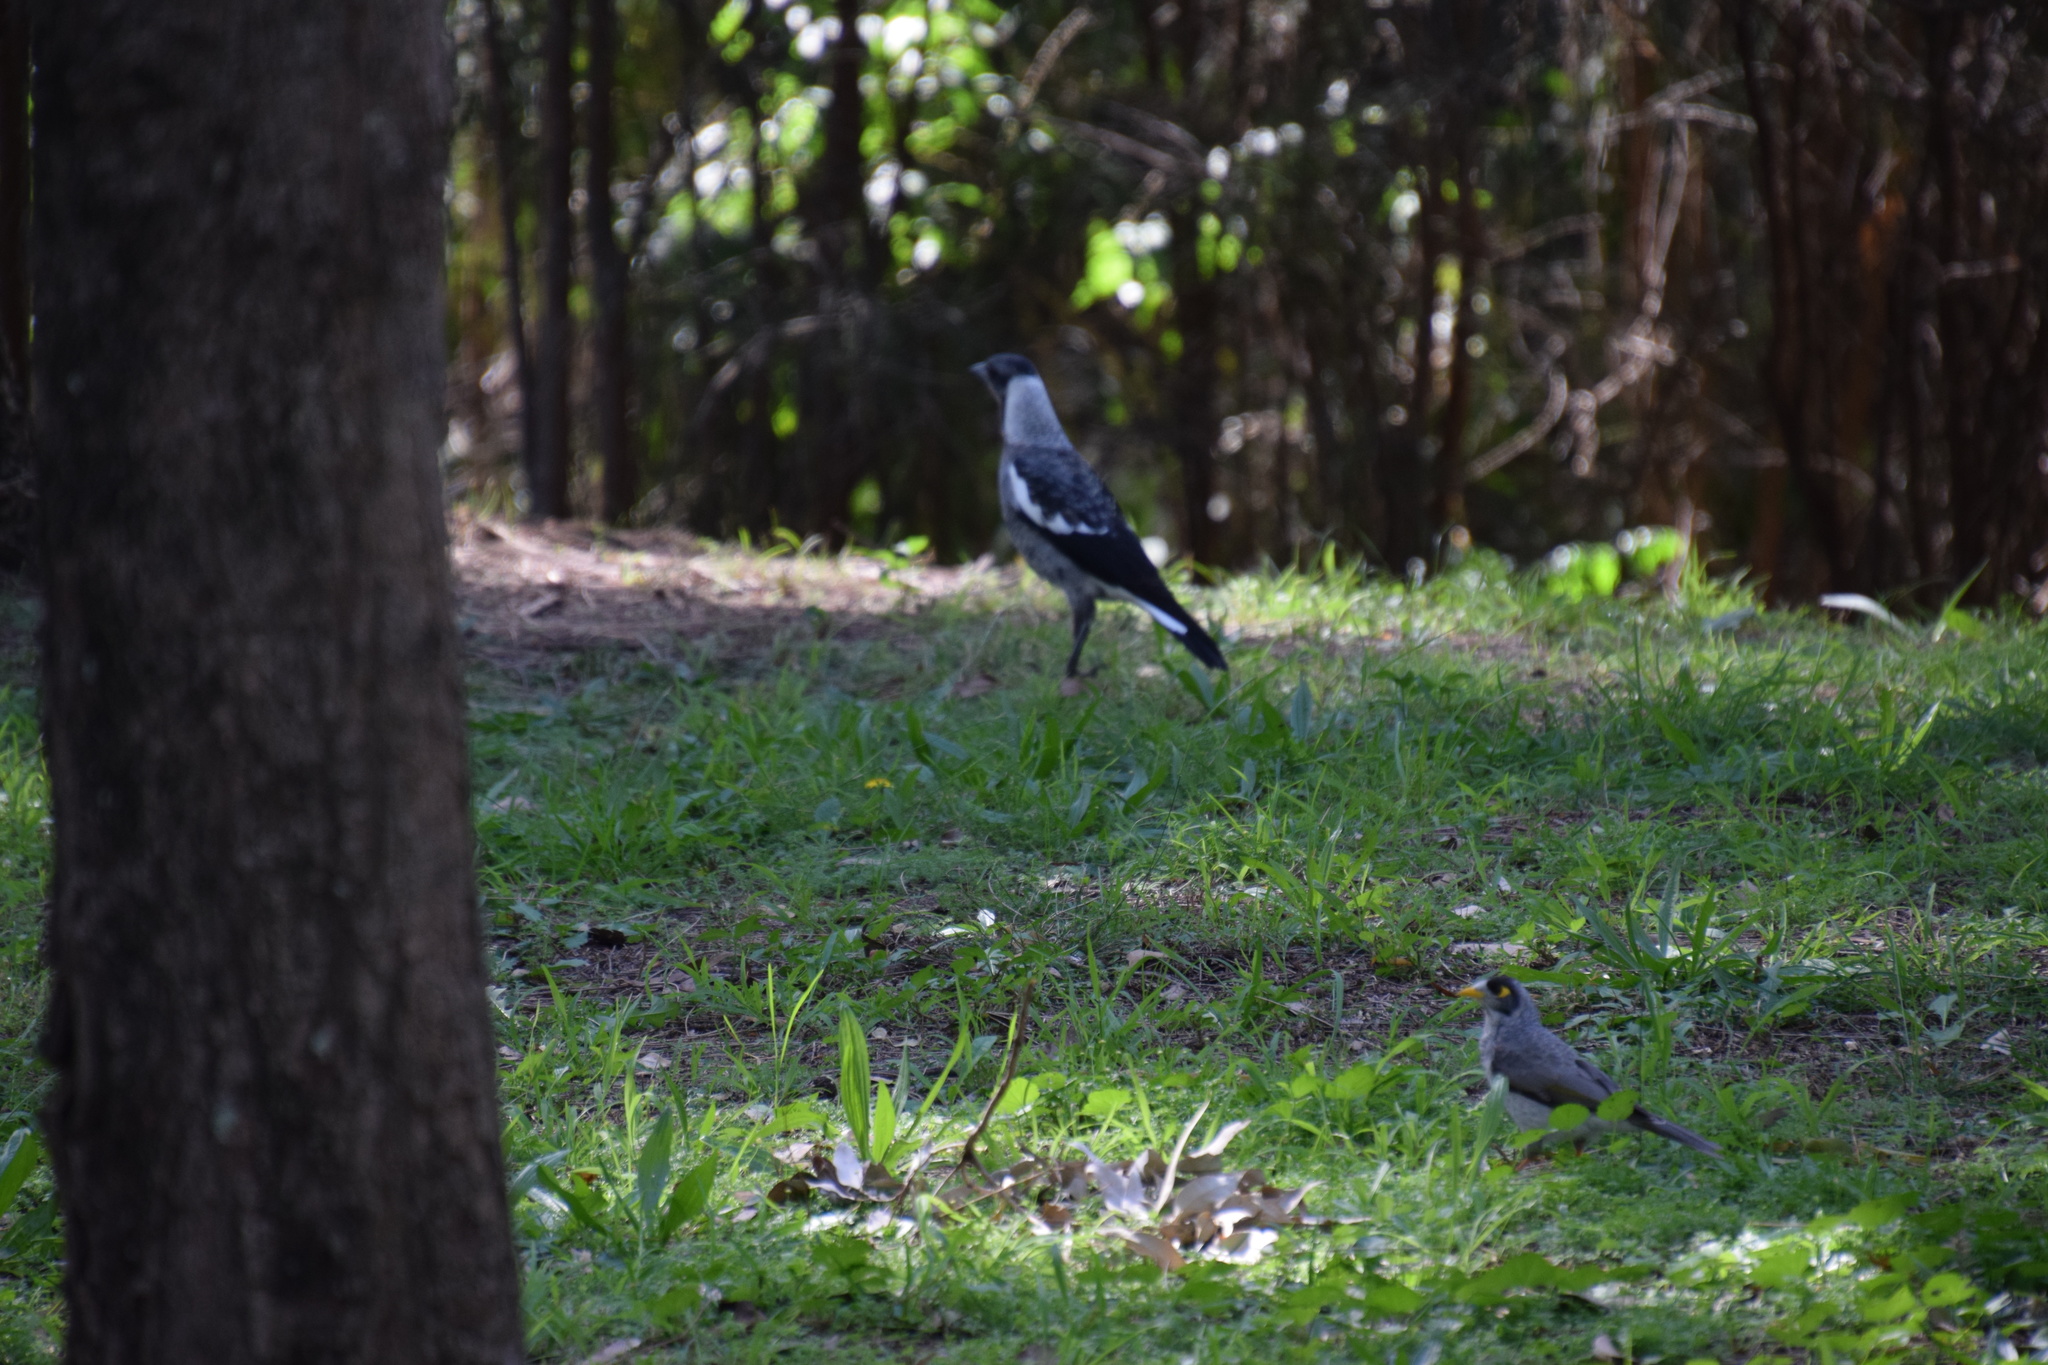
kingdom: Animalia
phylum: Chordata
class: Aves
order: Passeriformes
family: Cracticidae
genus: Gymnorhina
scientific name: Gymnorhina tibicen
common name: Australian magpie
